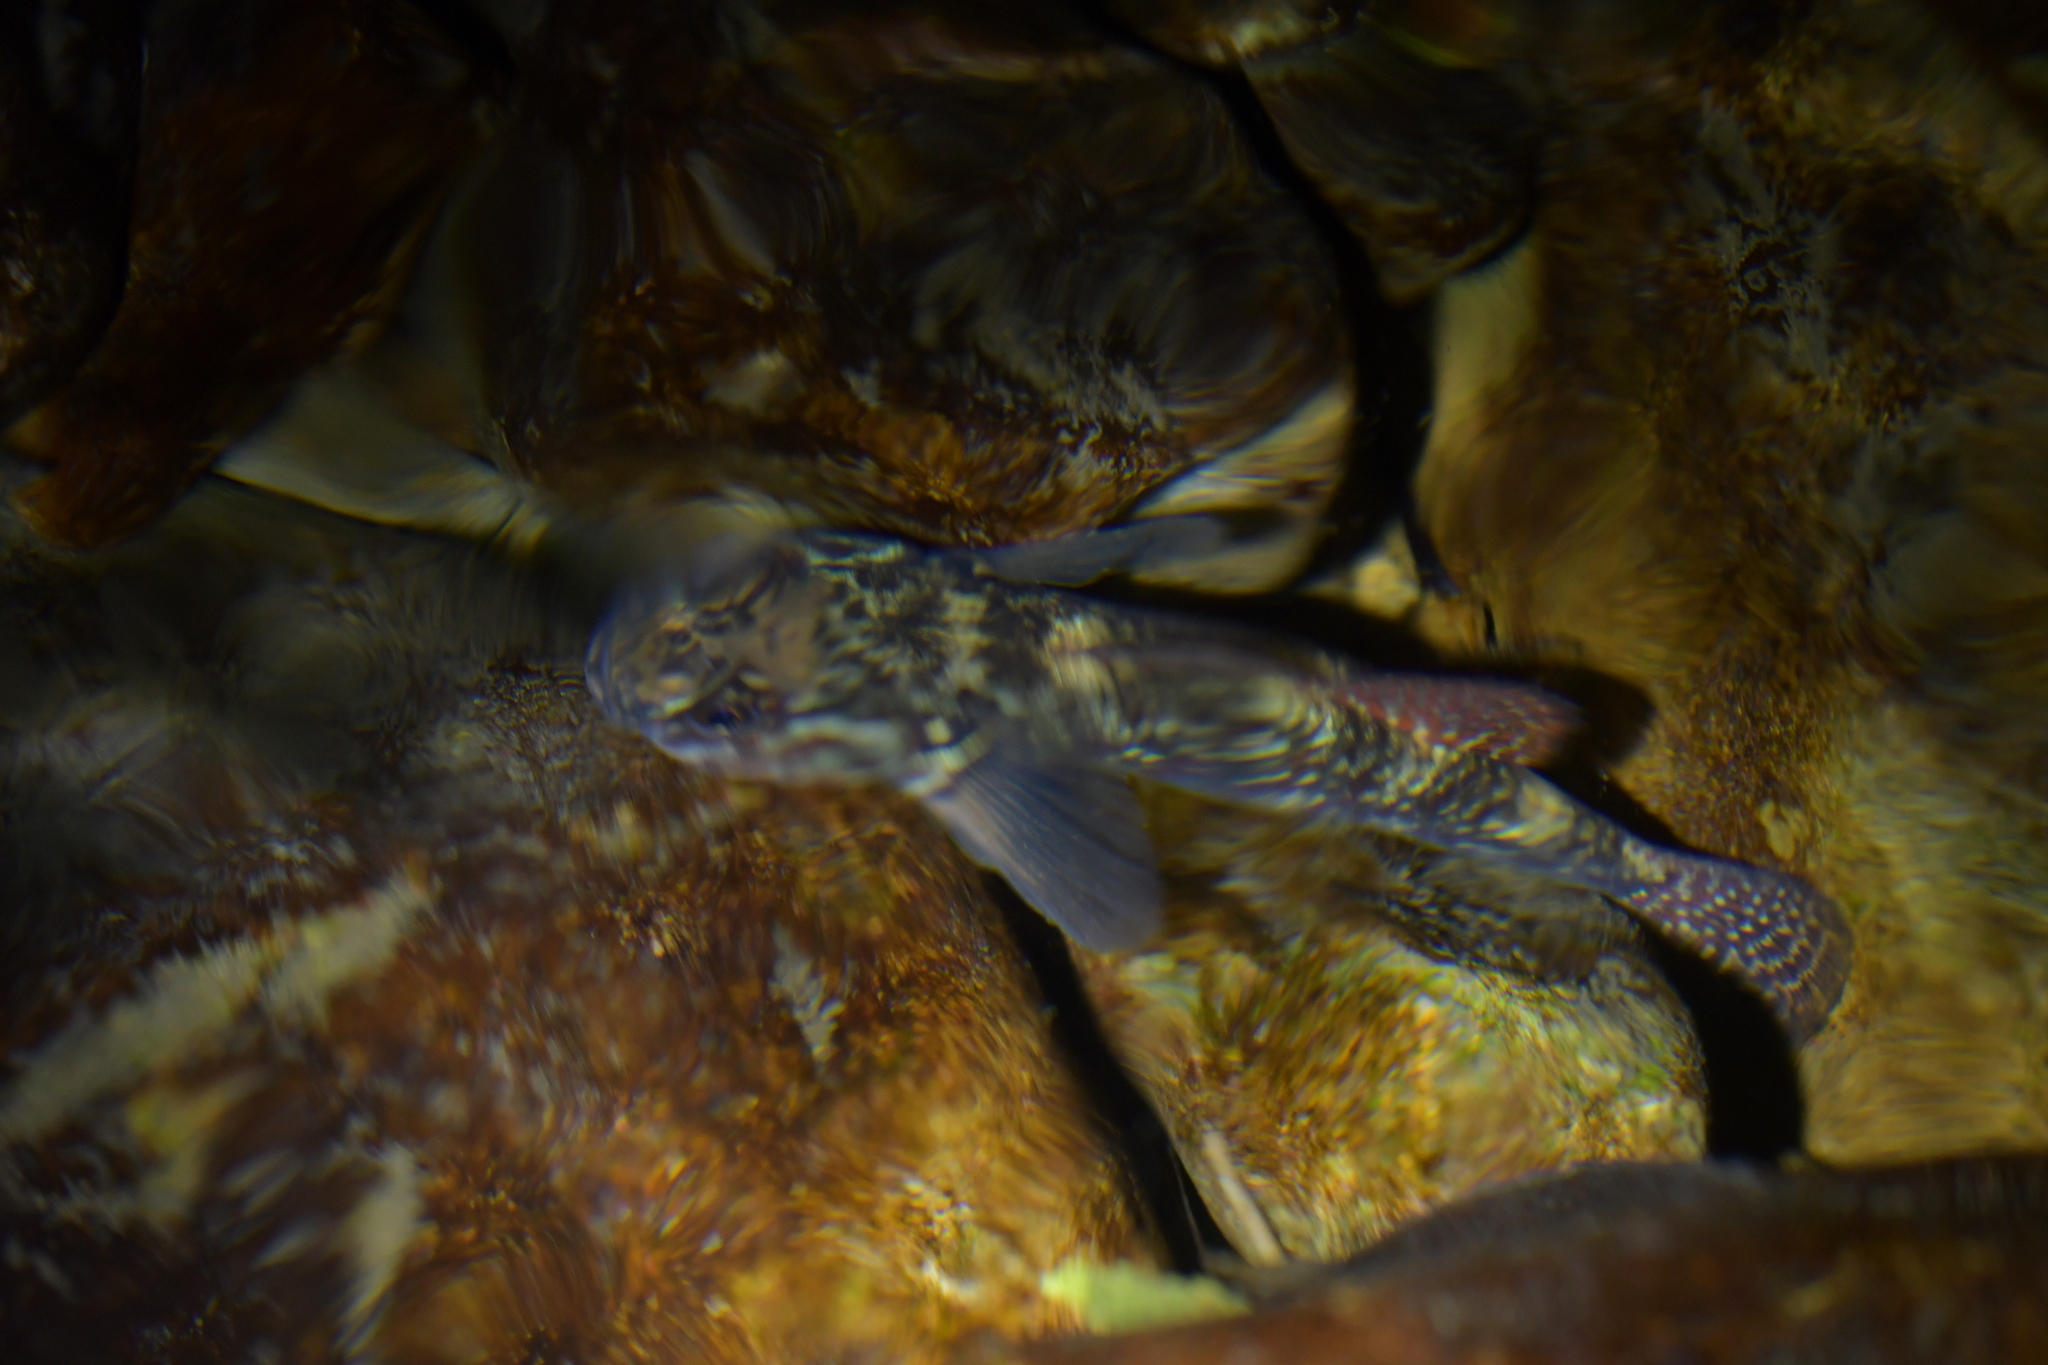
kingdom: Animalia
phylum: Chordata
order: Perciformes
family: Eleotridae
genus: Gobiomorphus
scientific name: Gobiomorphus huttoni
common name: Redfin bully
